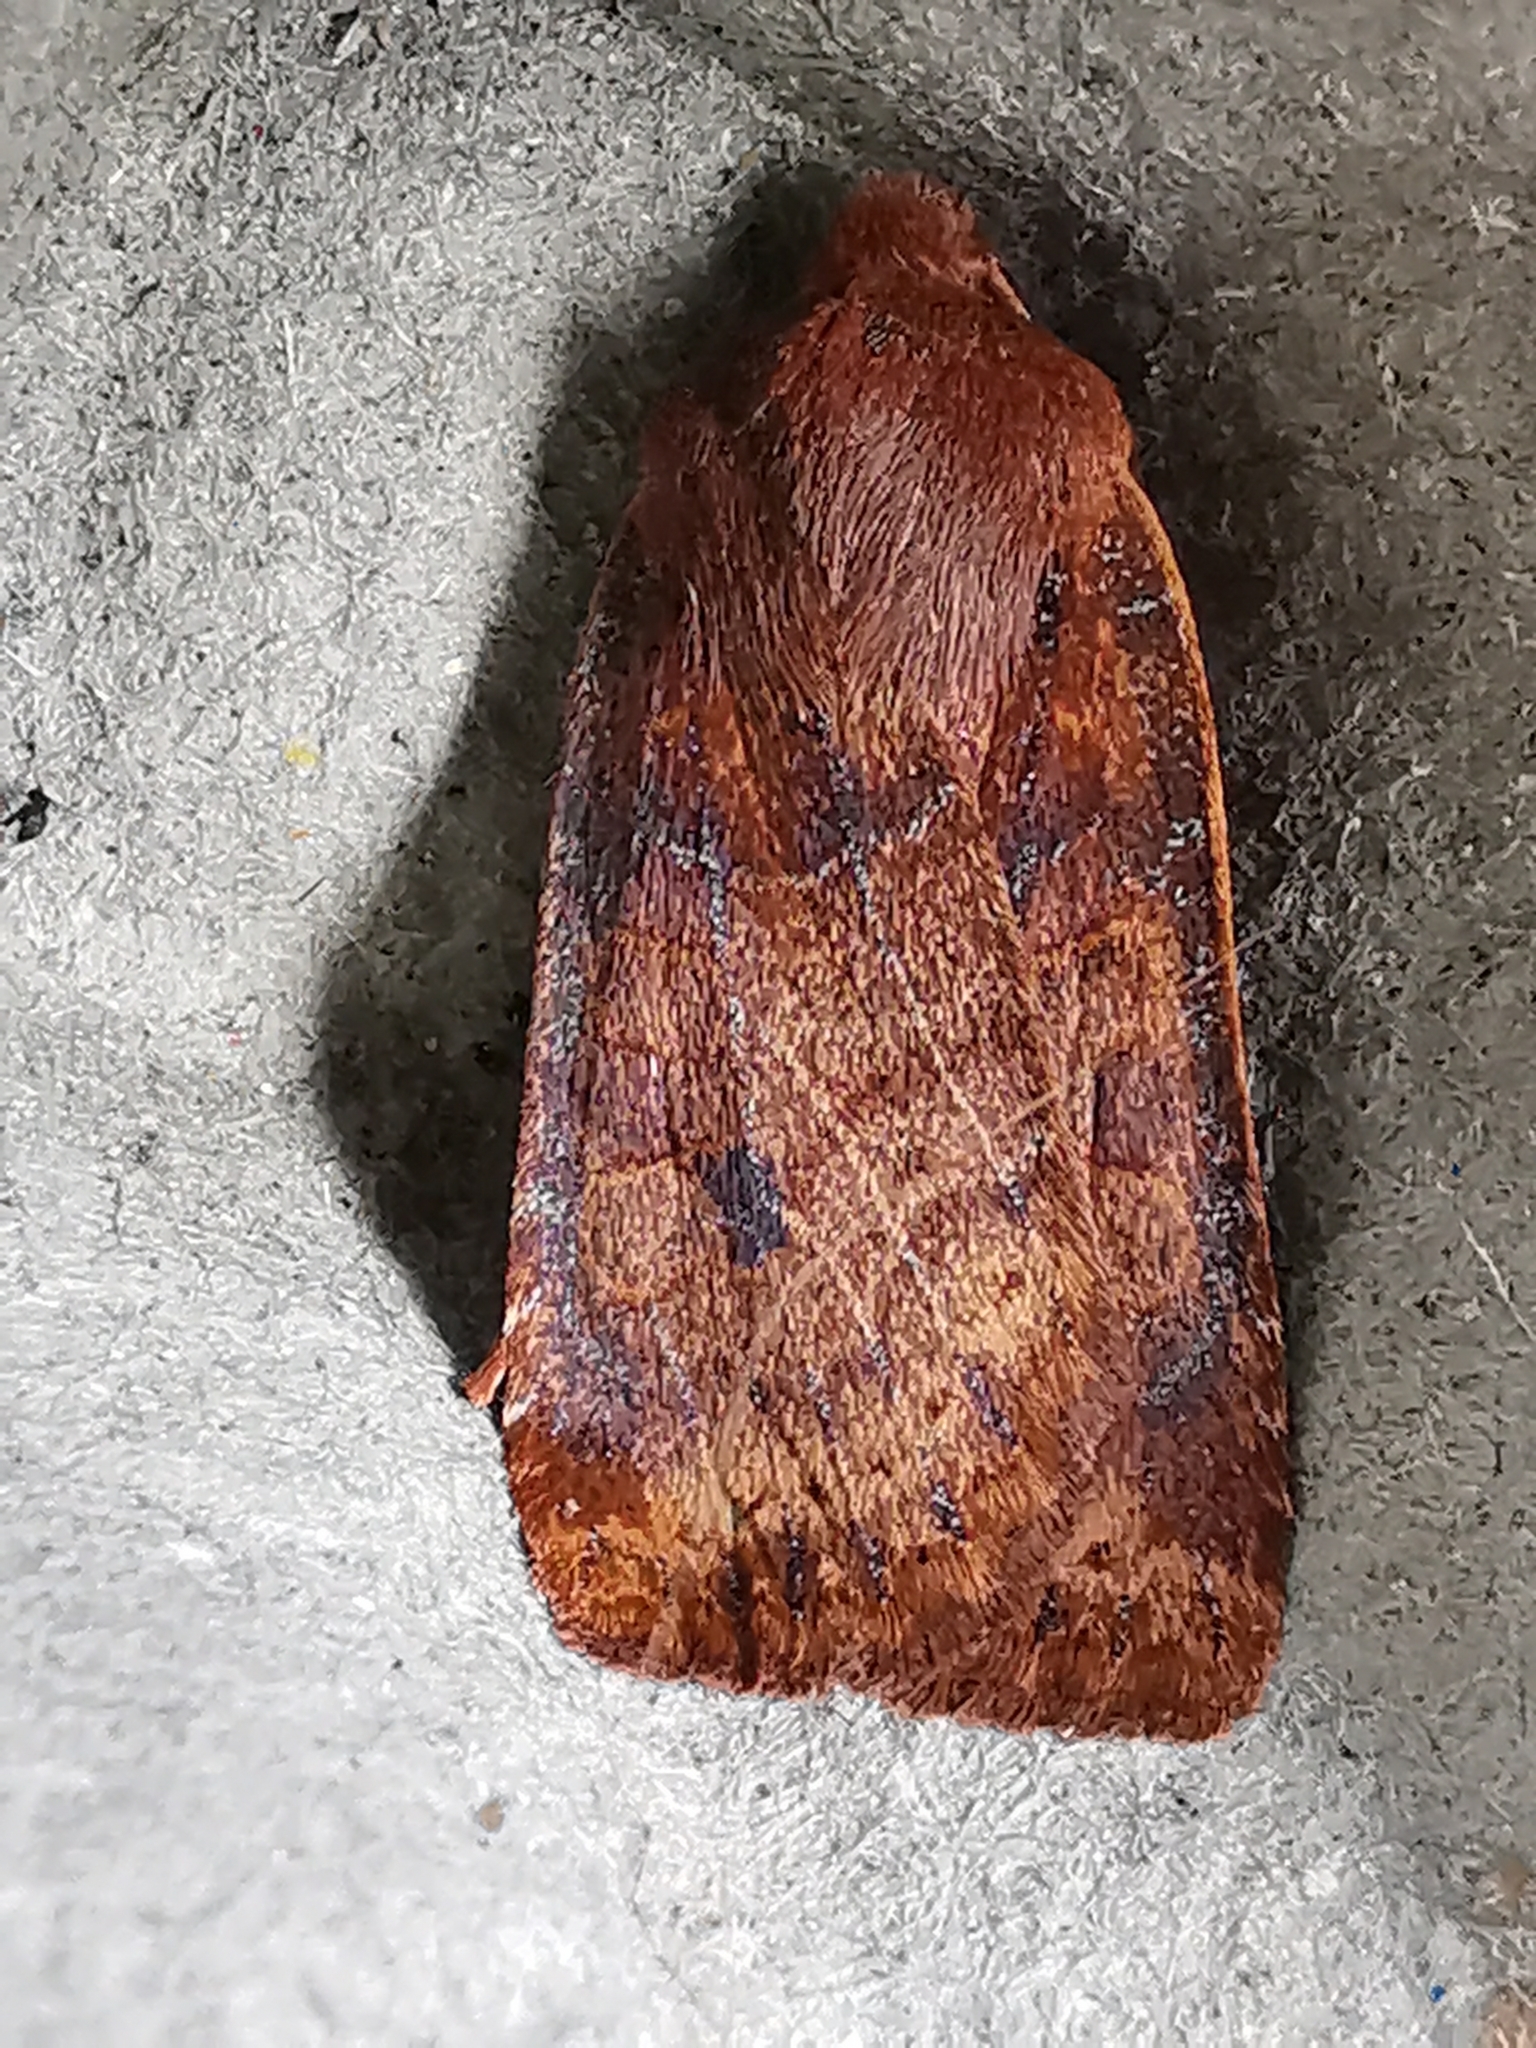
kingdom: Animalia
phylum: Arthropoda
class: Insecta
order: Lepidoptera
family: Noctuidae
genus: Conistra
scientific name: Conistra vaccinii
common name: Chestnut
